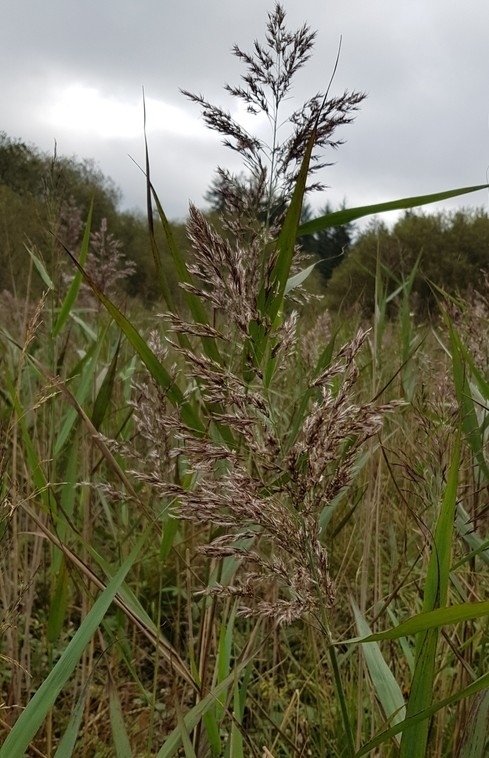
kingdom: Plantae
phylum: Tracheophyta
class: Liliopsida
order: Poales
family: Poaceae
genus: Phragmites
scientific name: Phragmites australis
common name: Common reed
